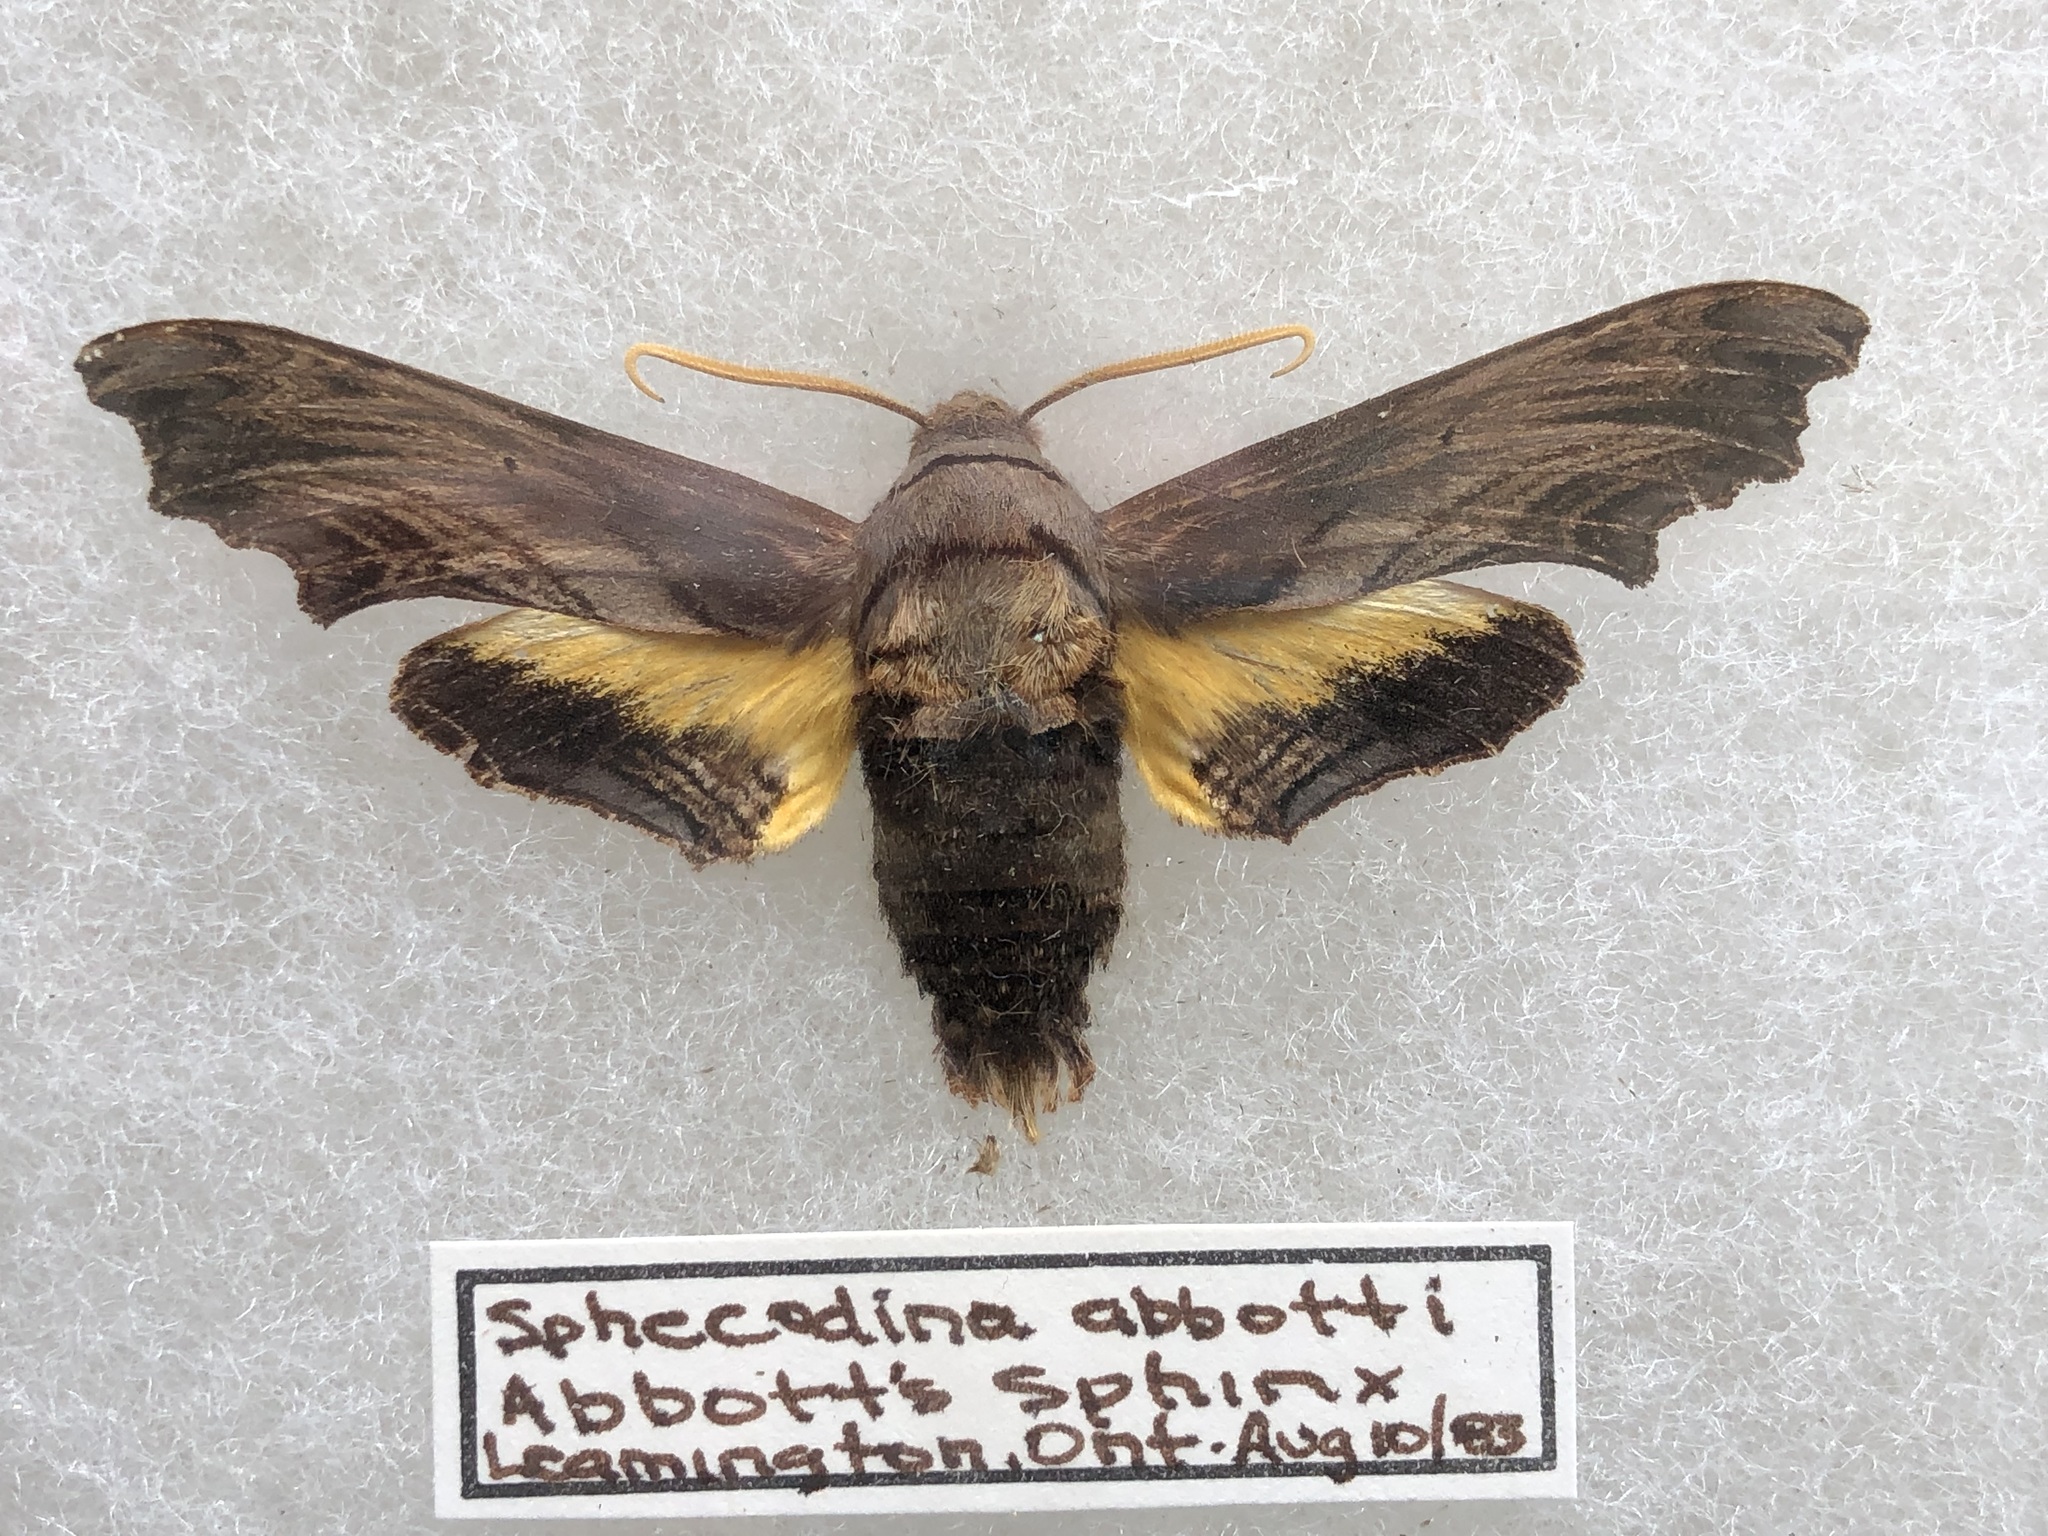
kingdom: Animalia
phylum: Arthropoda
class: Insecta
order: Lepidoptera
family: Sphingidae
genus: Sphecodina
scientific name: Sphecodina abbottii
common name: Abbott's sphinx
